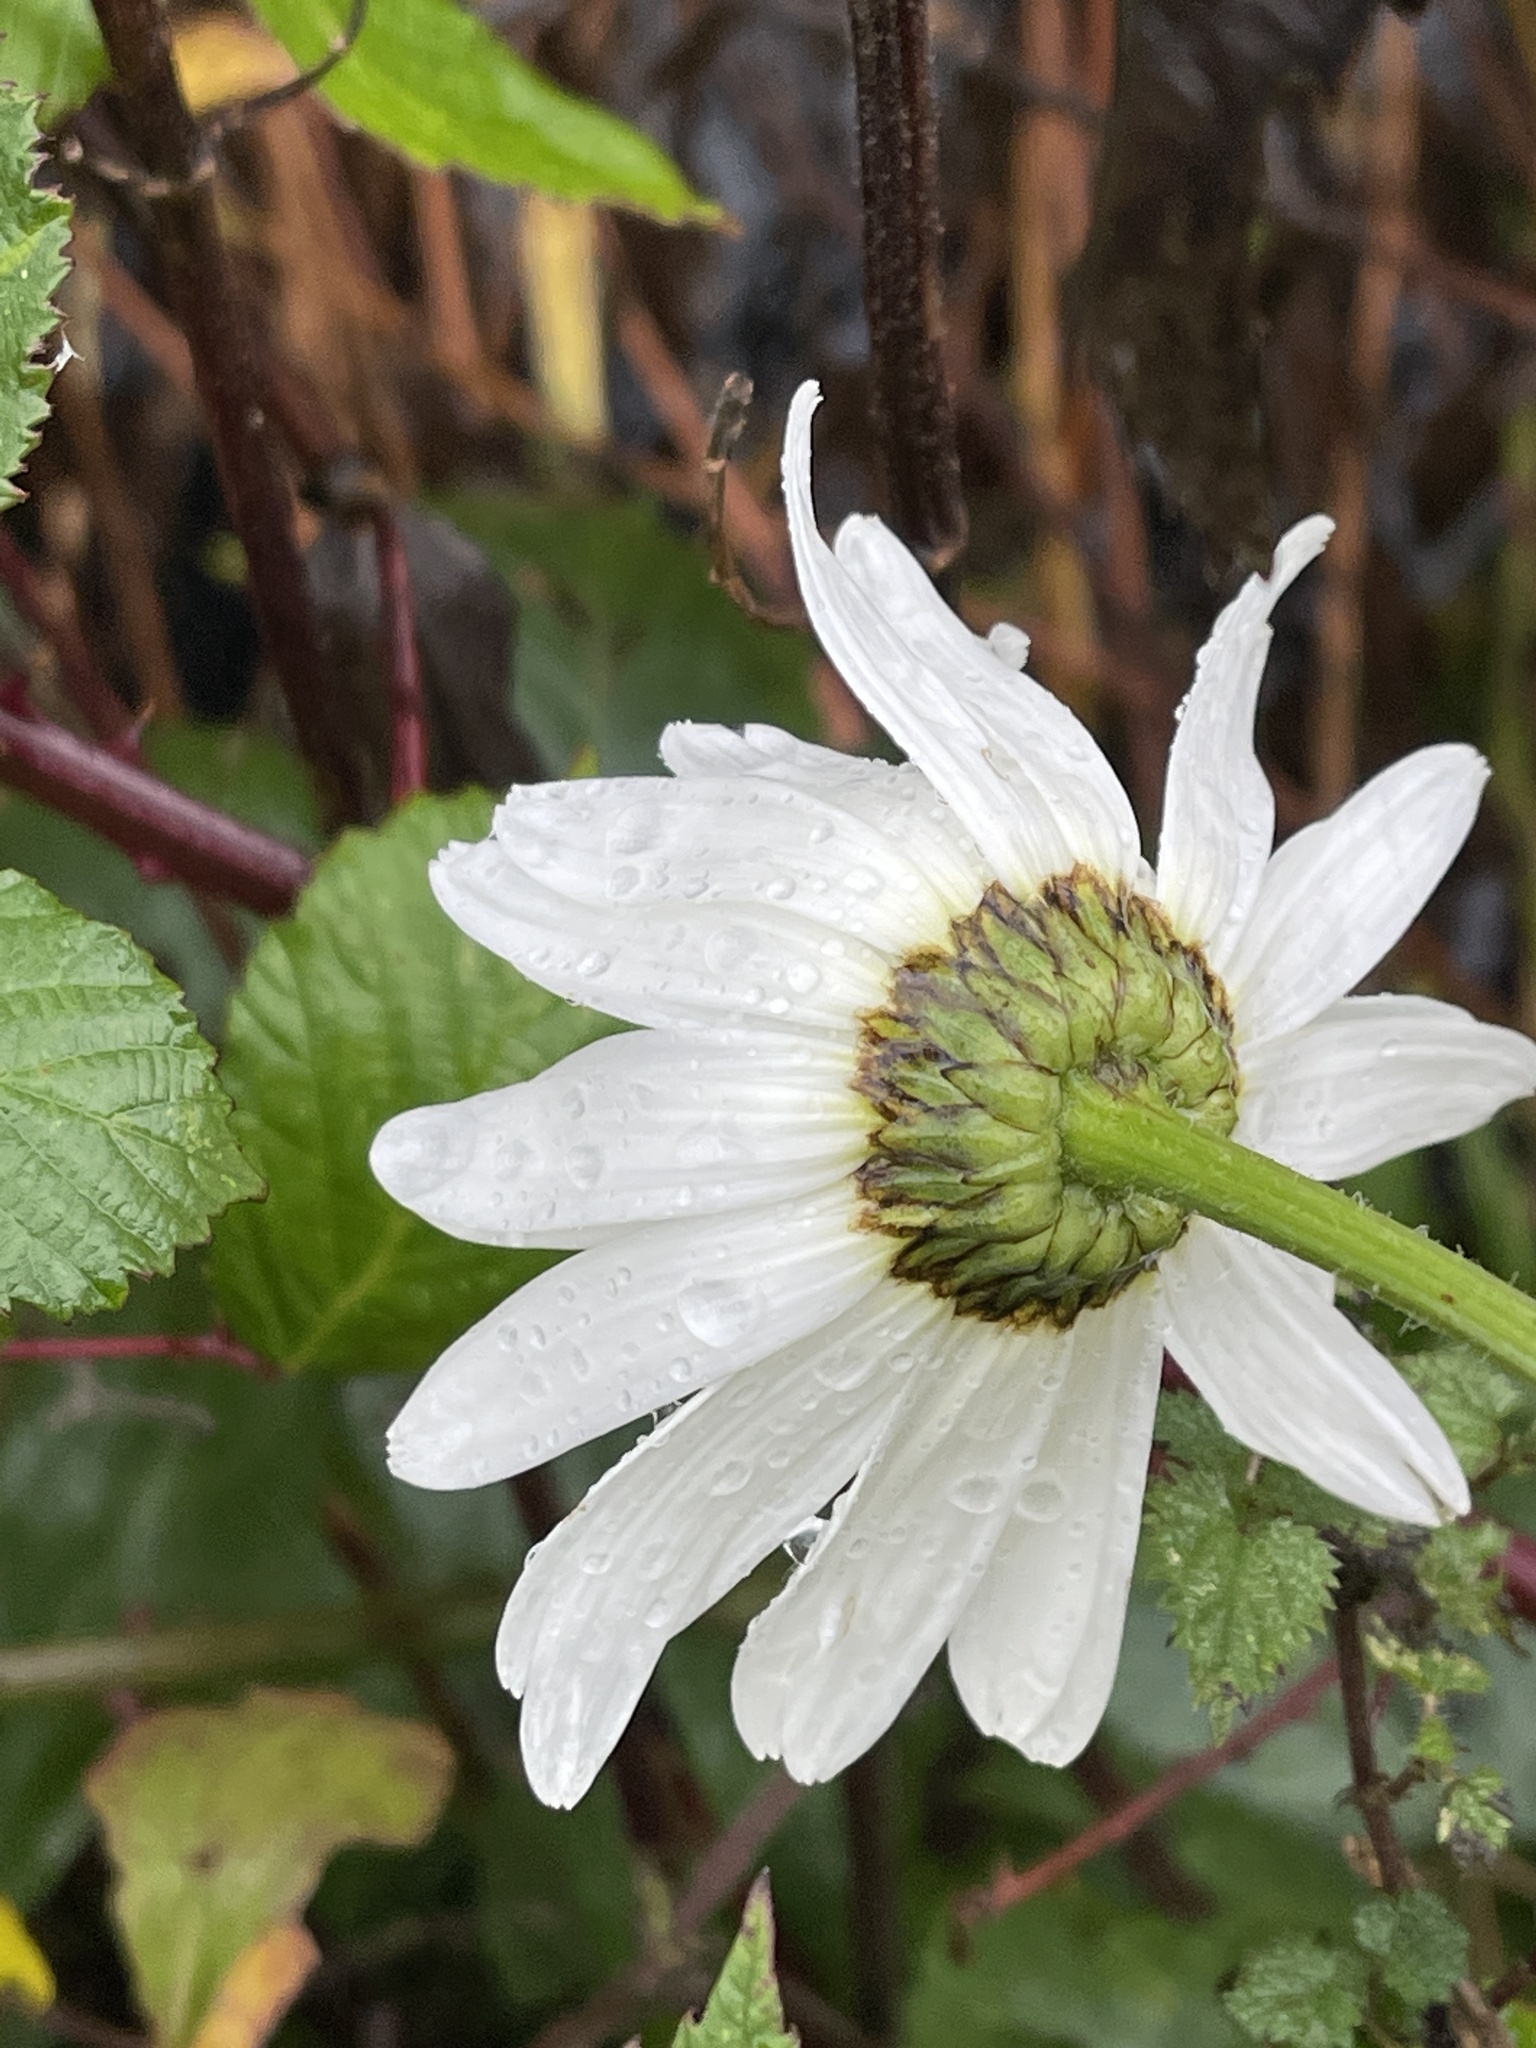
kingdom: Plantae
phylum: Tracheophyta
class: Magnoliopsida
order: Asterales
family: Asteraceae
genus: Leucanthemum
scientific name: Leucanthemum superbum
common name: Shasta daisy
